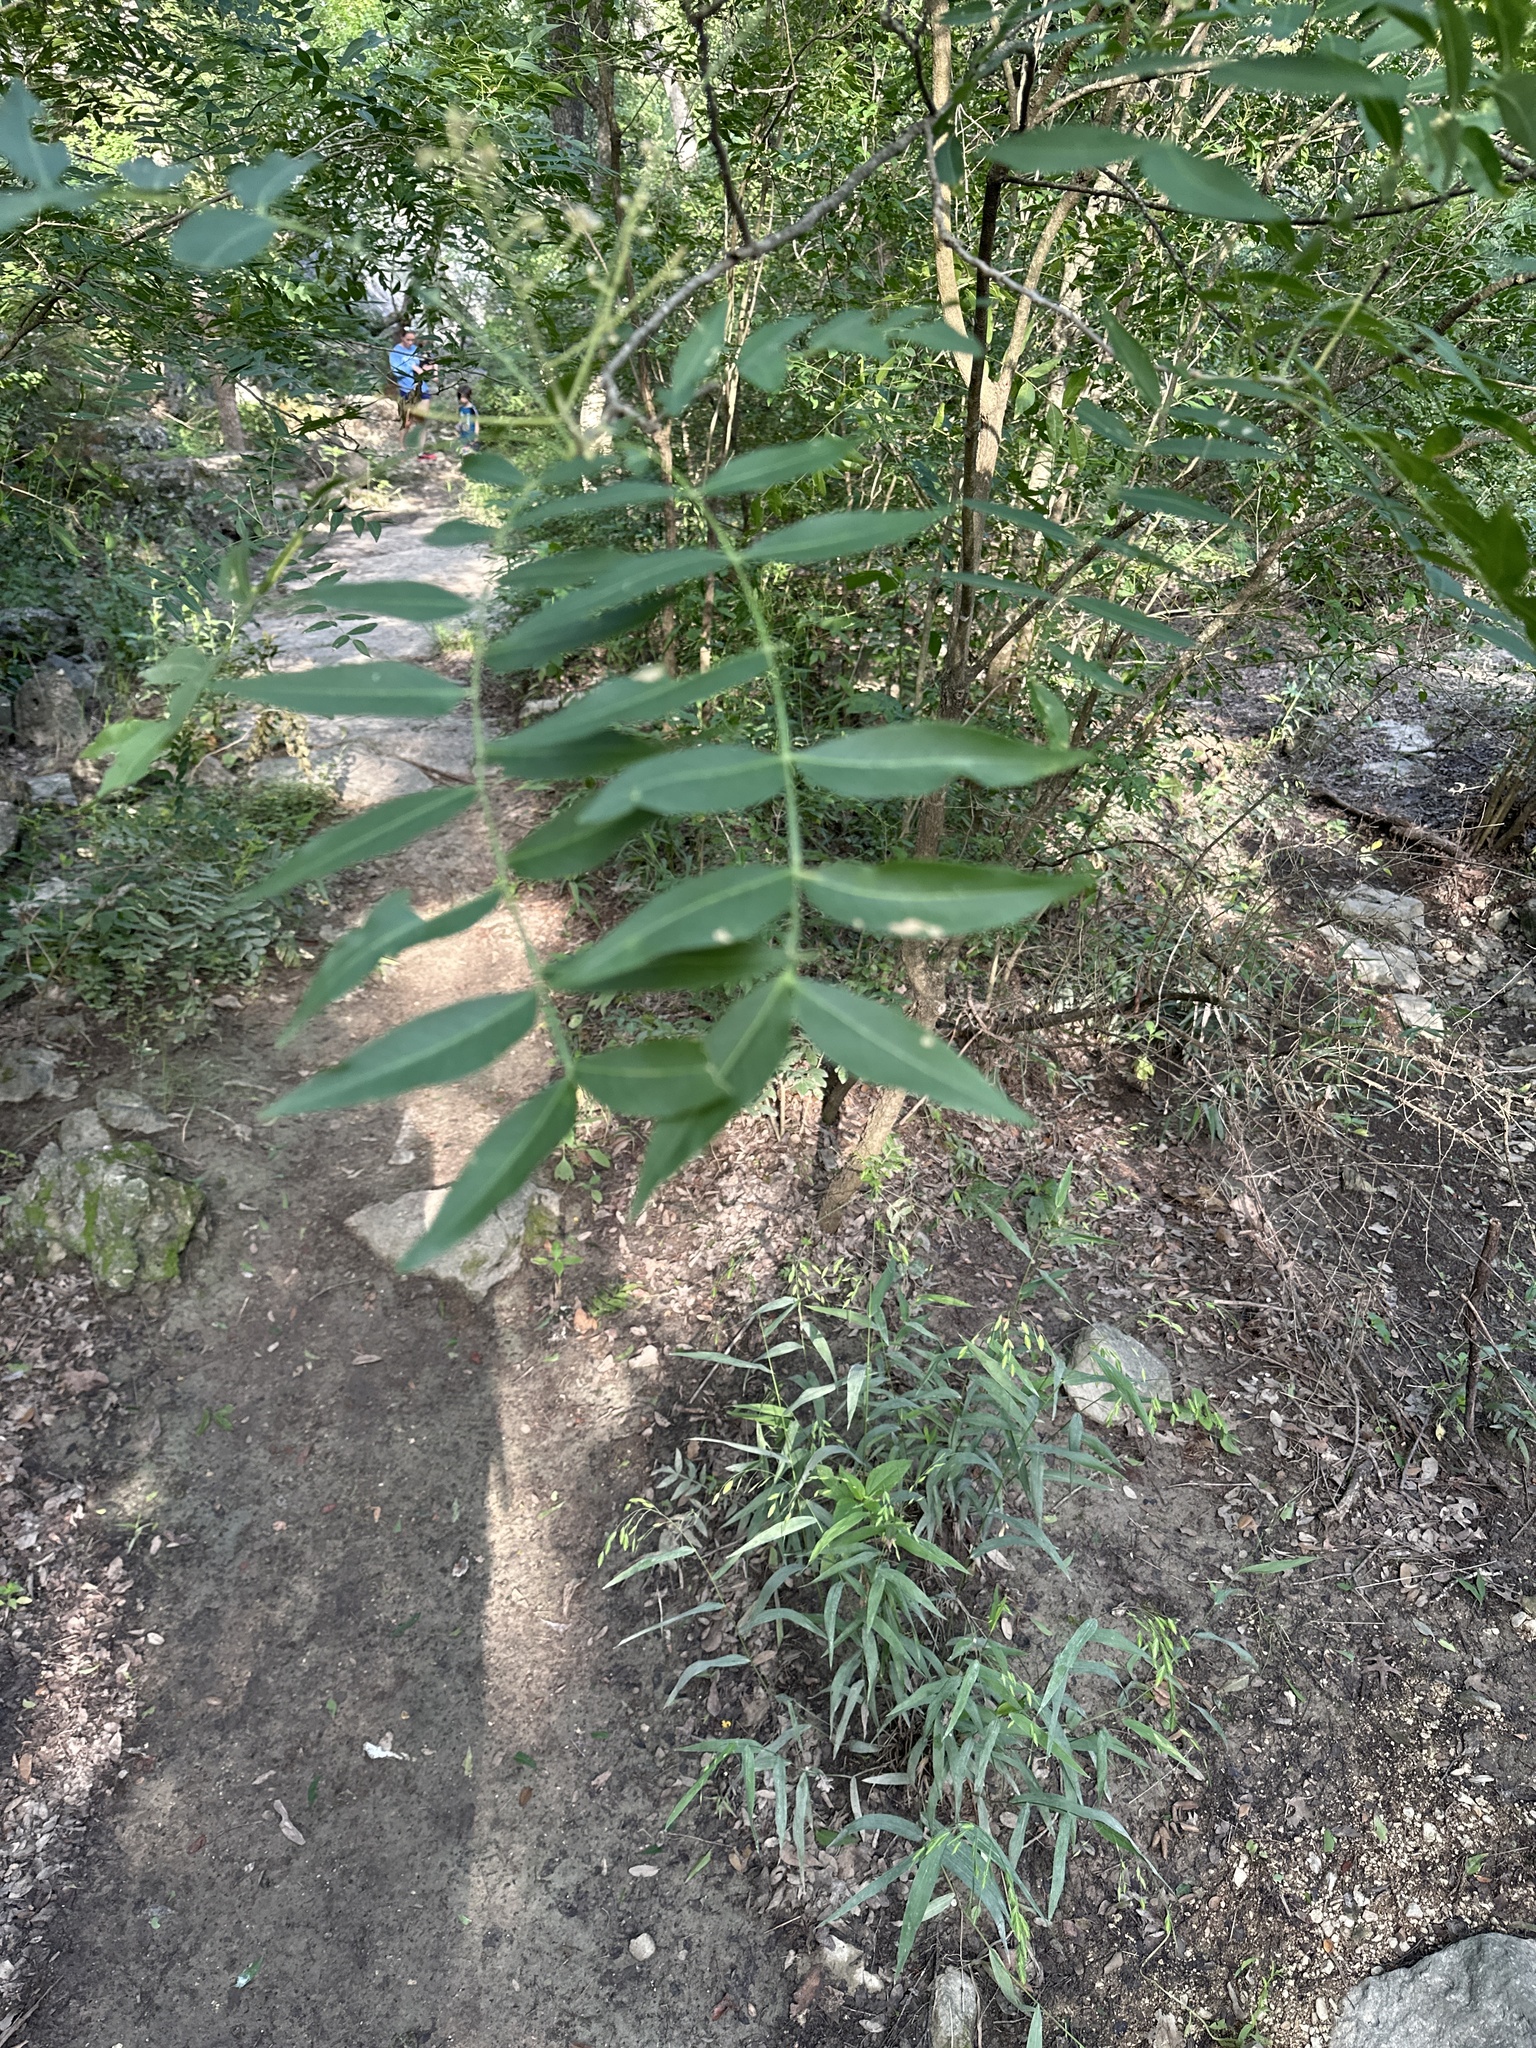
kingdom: Plantae
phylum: Tracheophyta
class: Magnoliopsida
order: Sapindales
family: Sapindaceae
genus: Sapindus
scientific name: Sapindus drummondii
